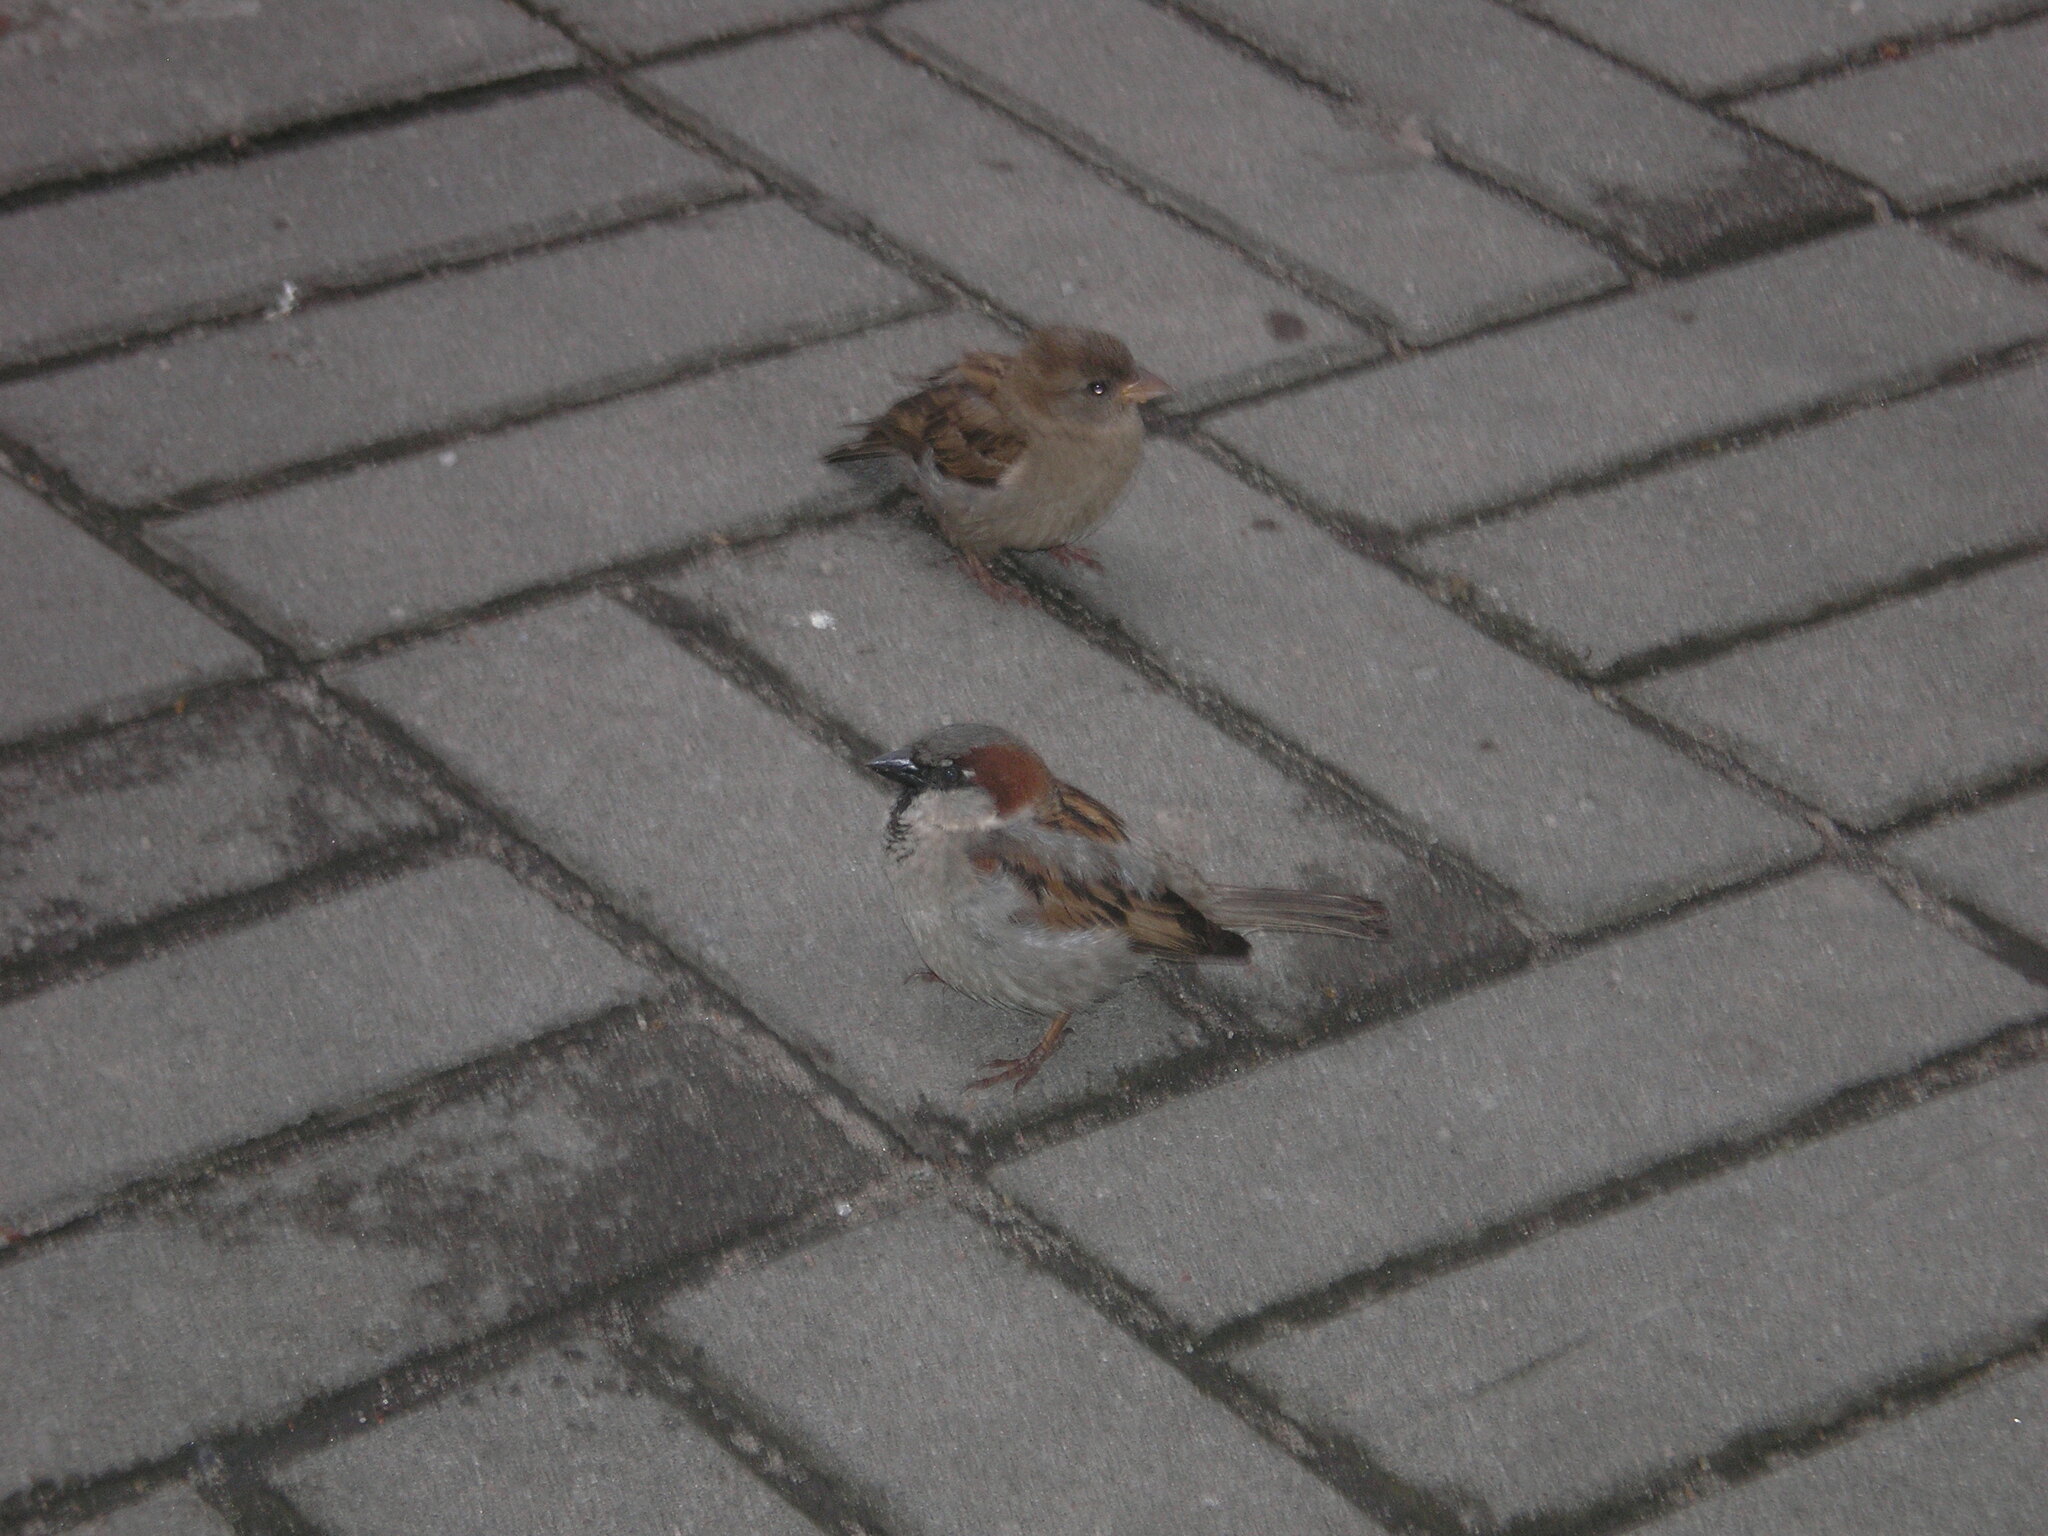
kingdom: Animalia
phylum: Chordata
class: Aves
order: Passeriformes
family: Passeridae
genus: Passer
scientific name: Passer domesticus
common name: House sparrow
